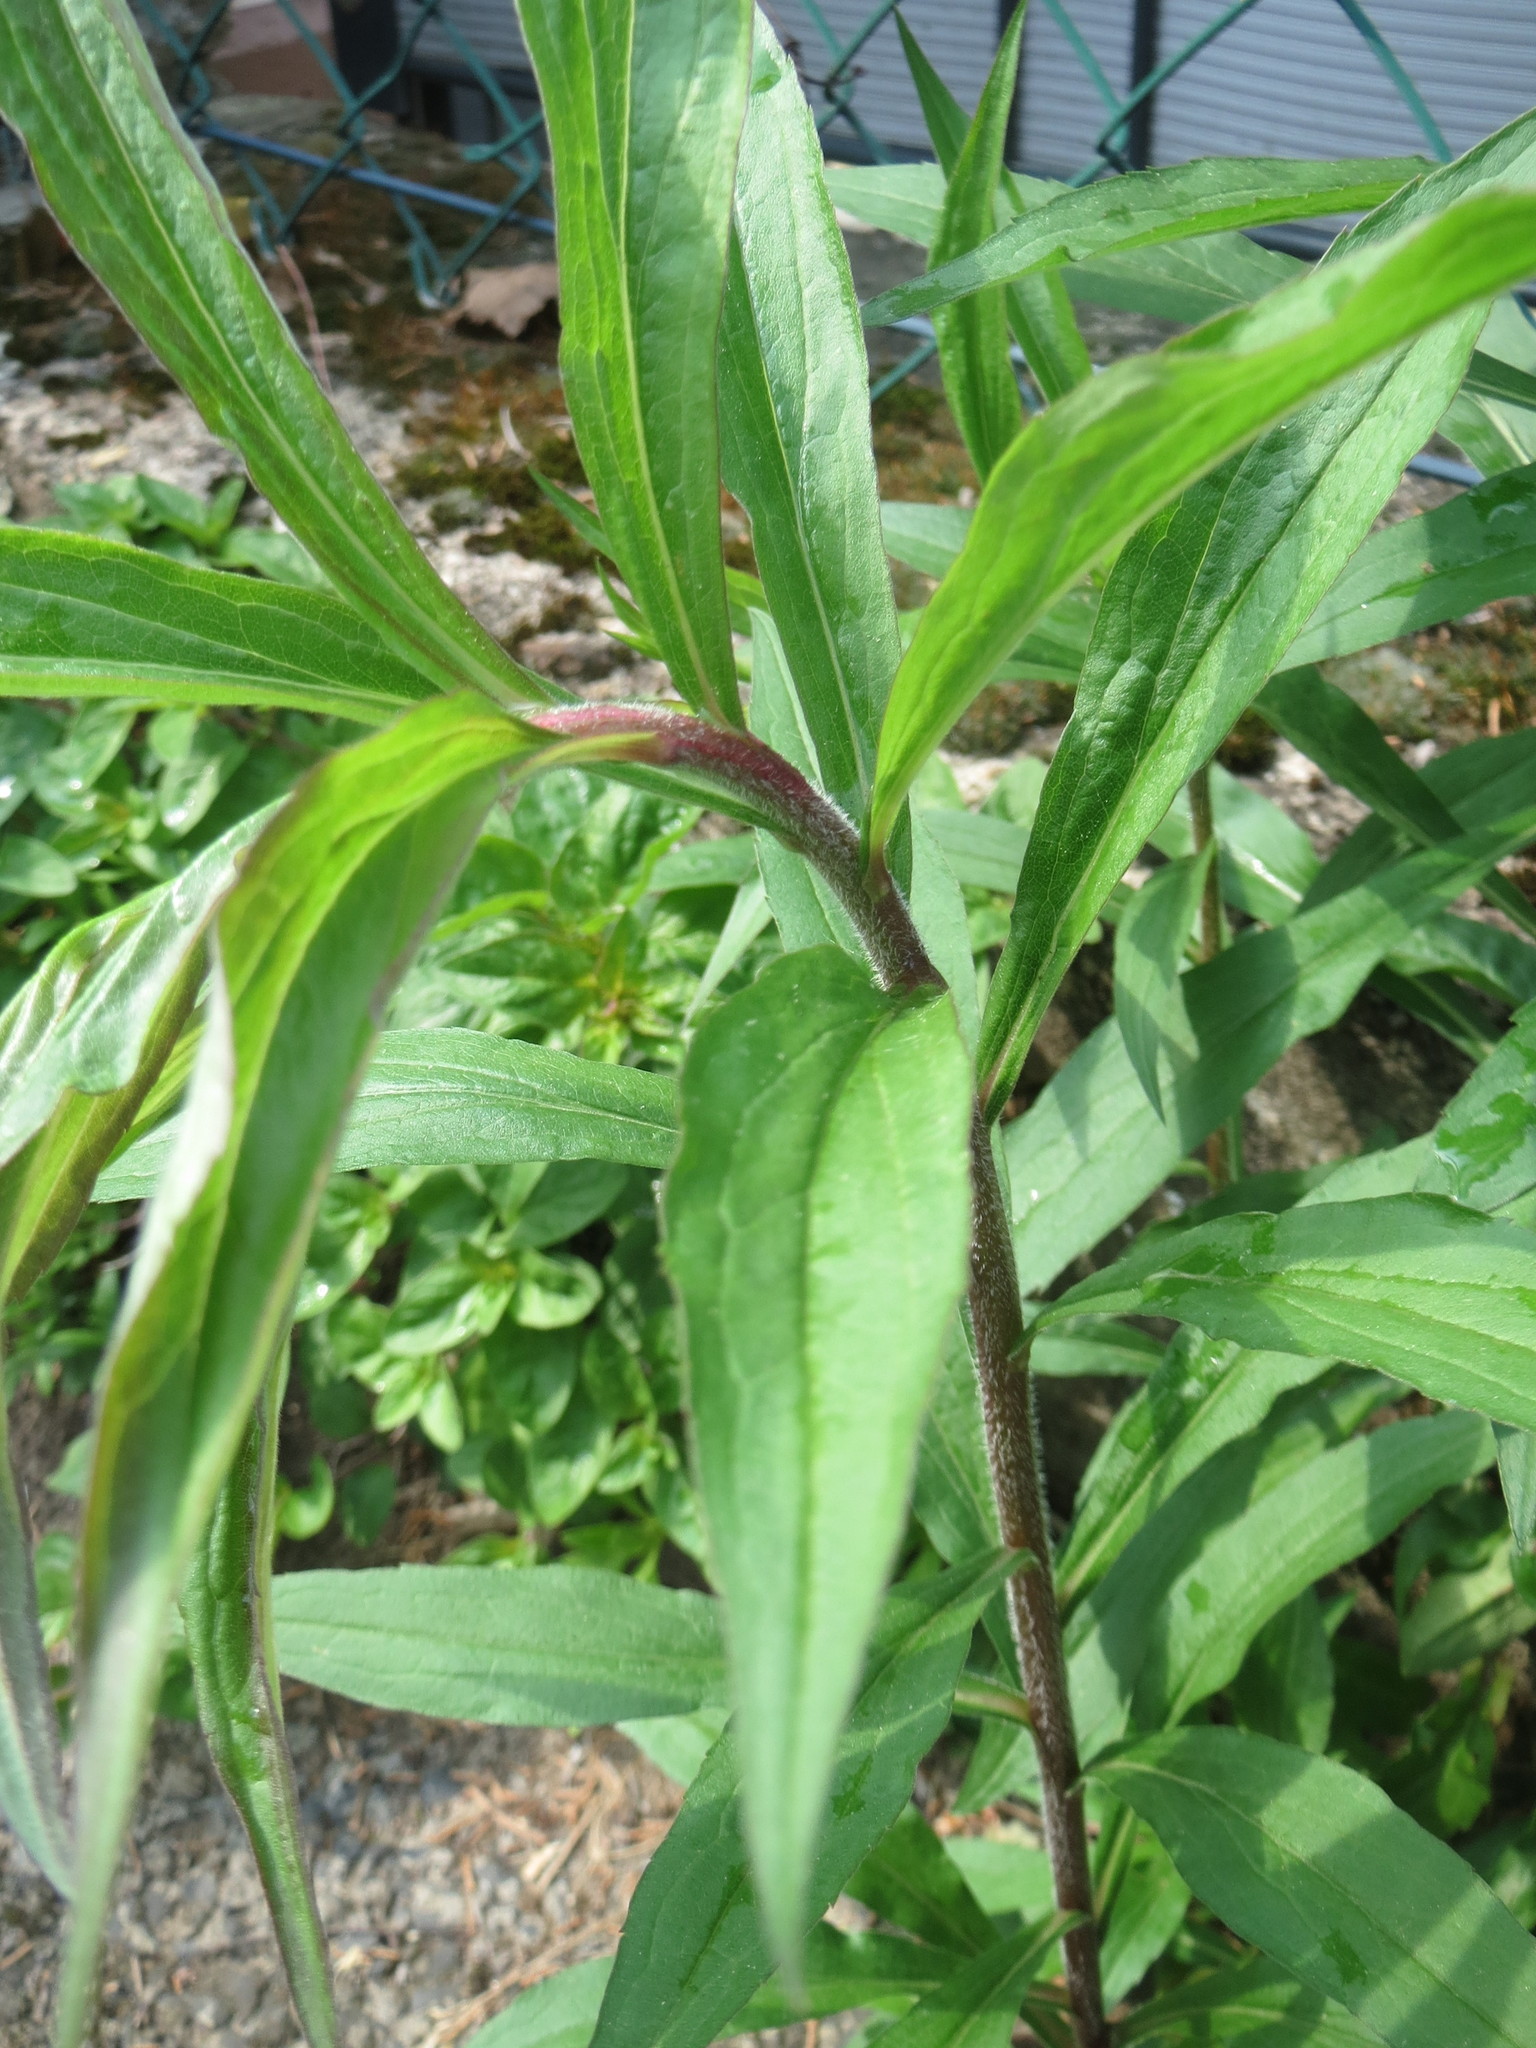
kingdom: Plantae
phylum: Tracheophyta
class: Magnoliopsida
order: Asterales
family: Asteraceae
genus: Solidago
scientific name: Solidago canadensis
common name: Canada goldenrod
